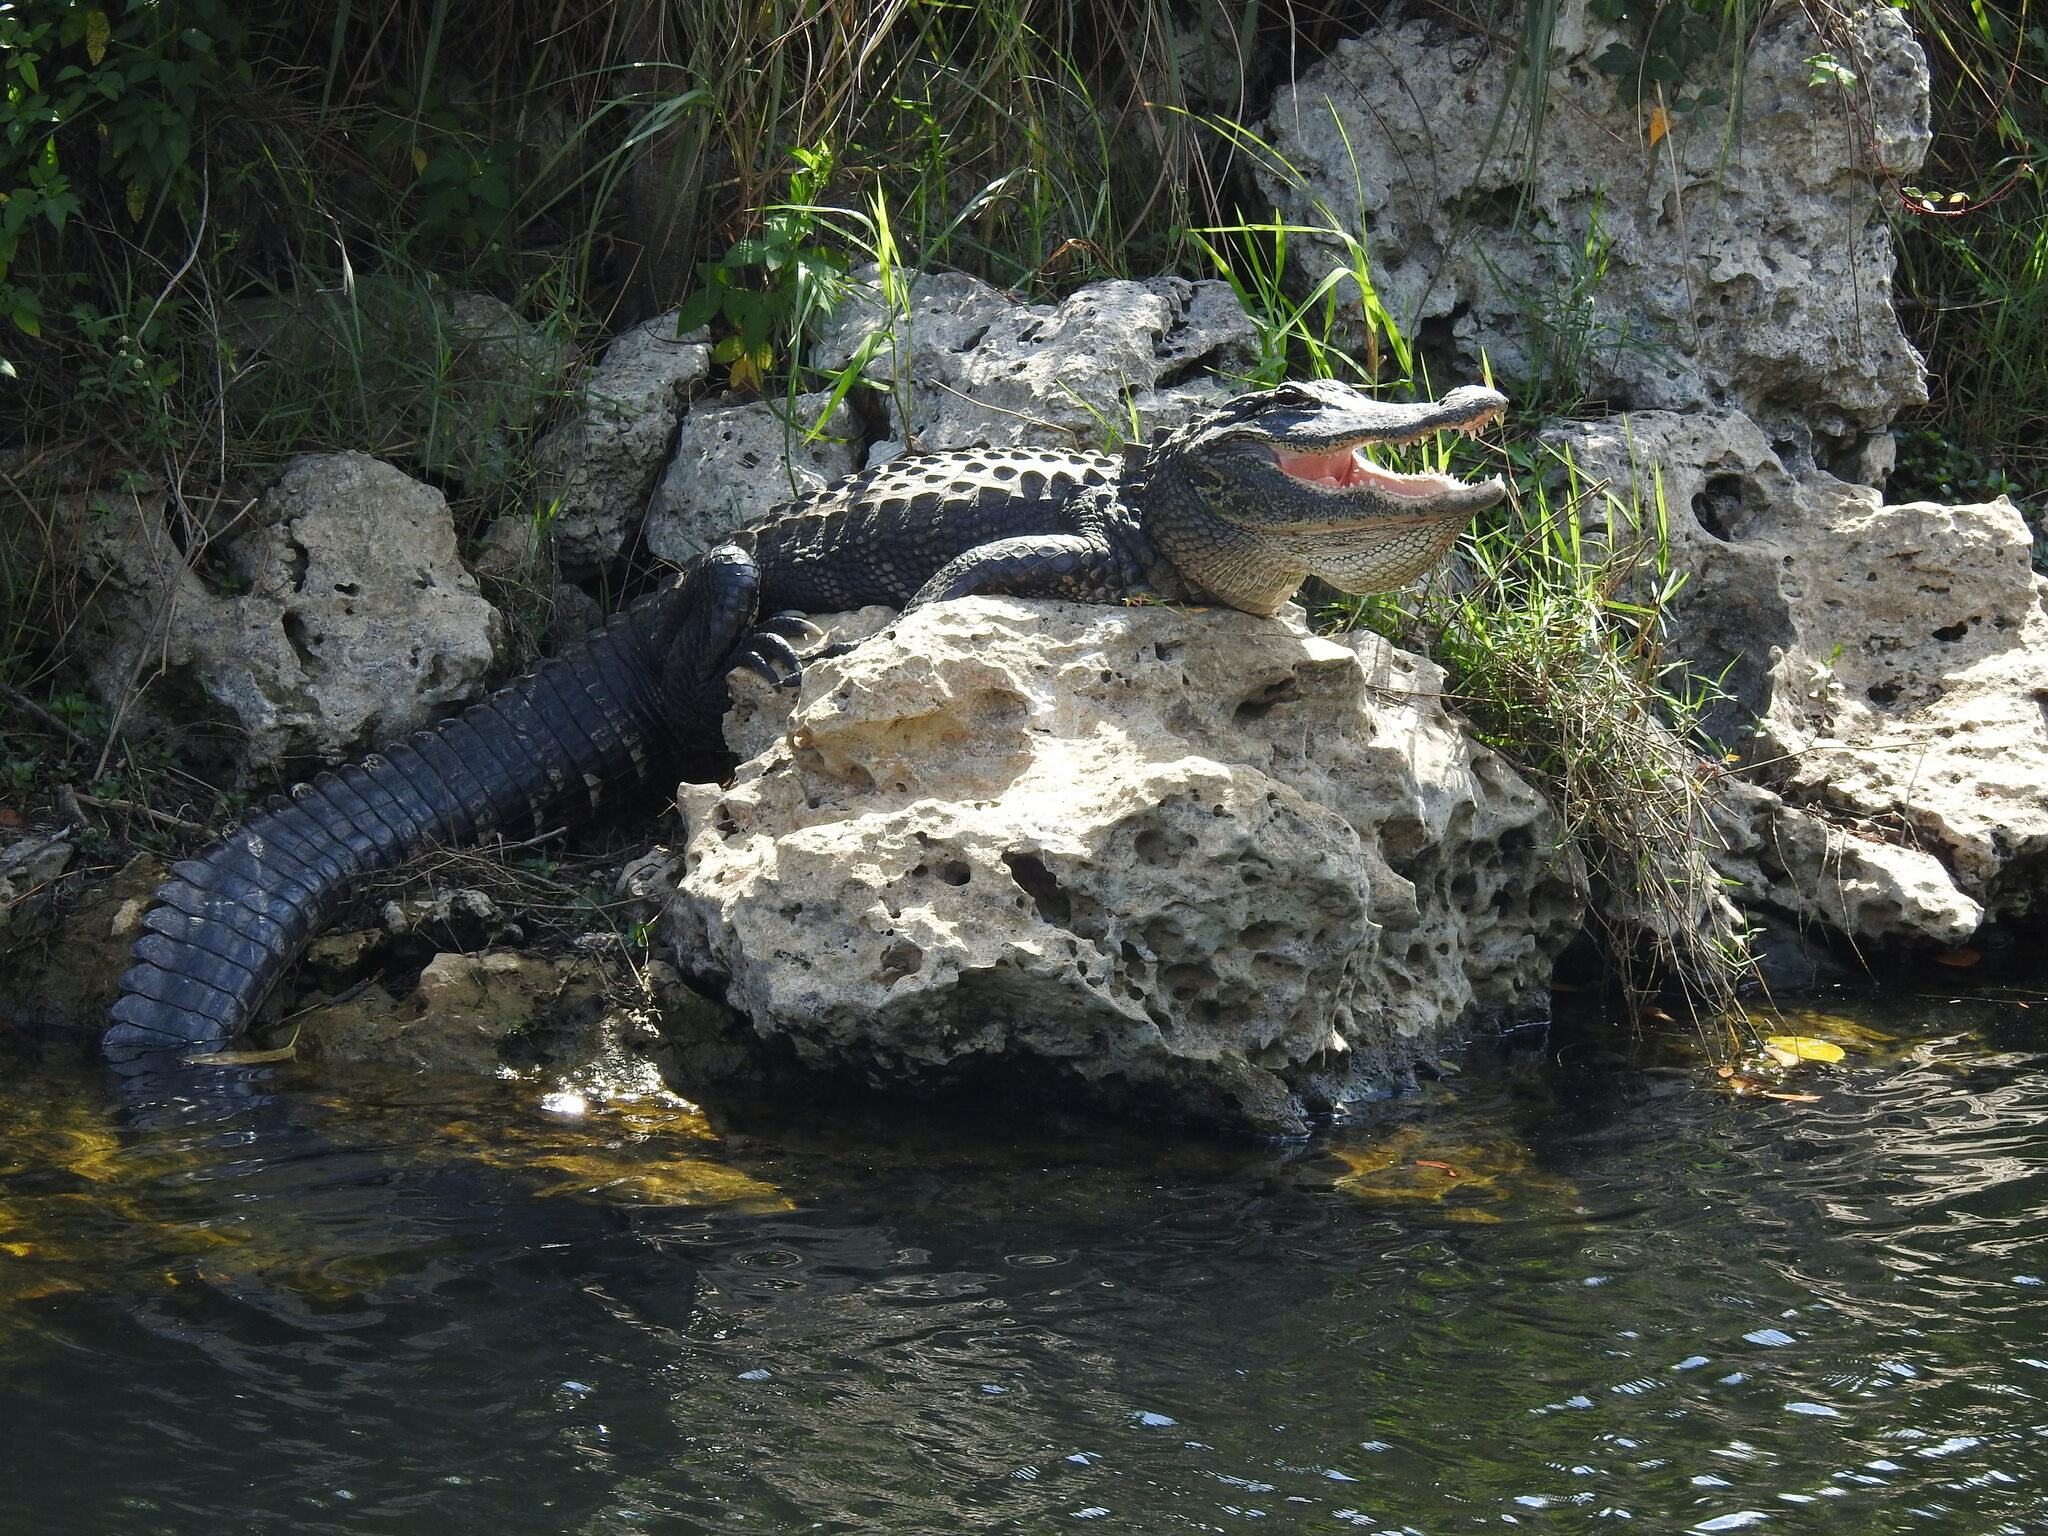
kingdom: Animalia
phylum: Chordata
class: Crocodylia
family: Alligatoridae
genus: Alligator
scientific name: Alligator mississippiensis
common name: American alligator
